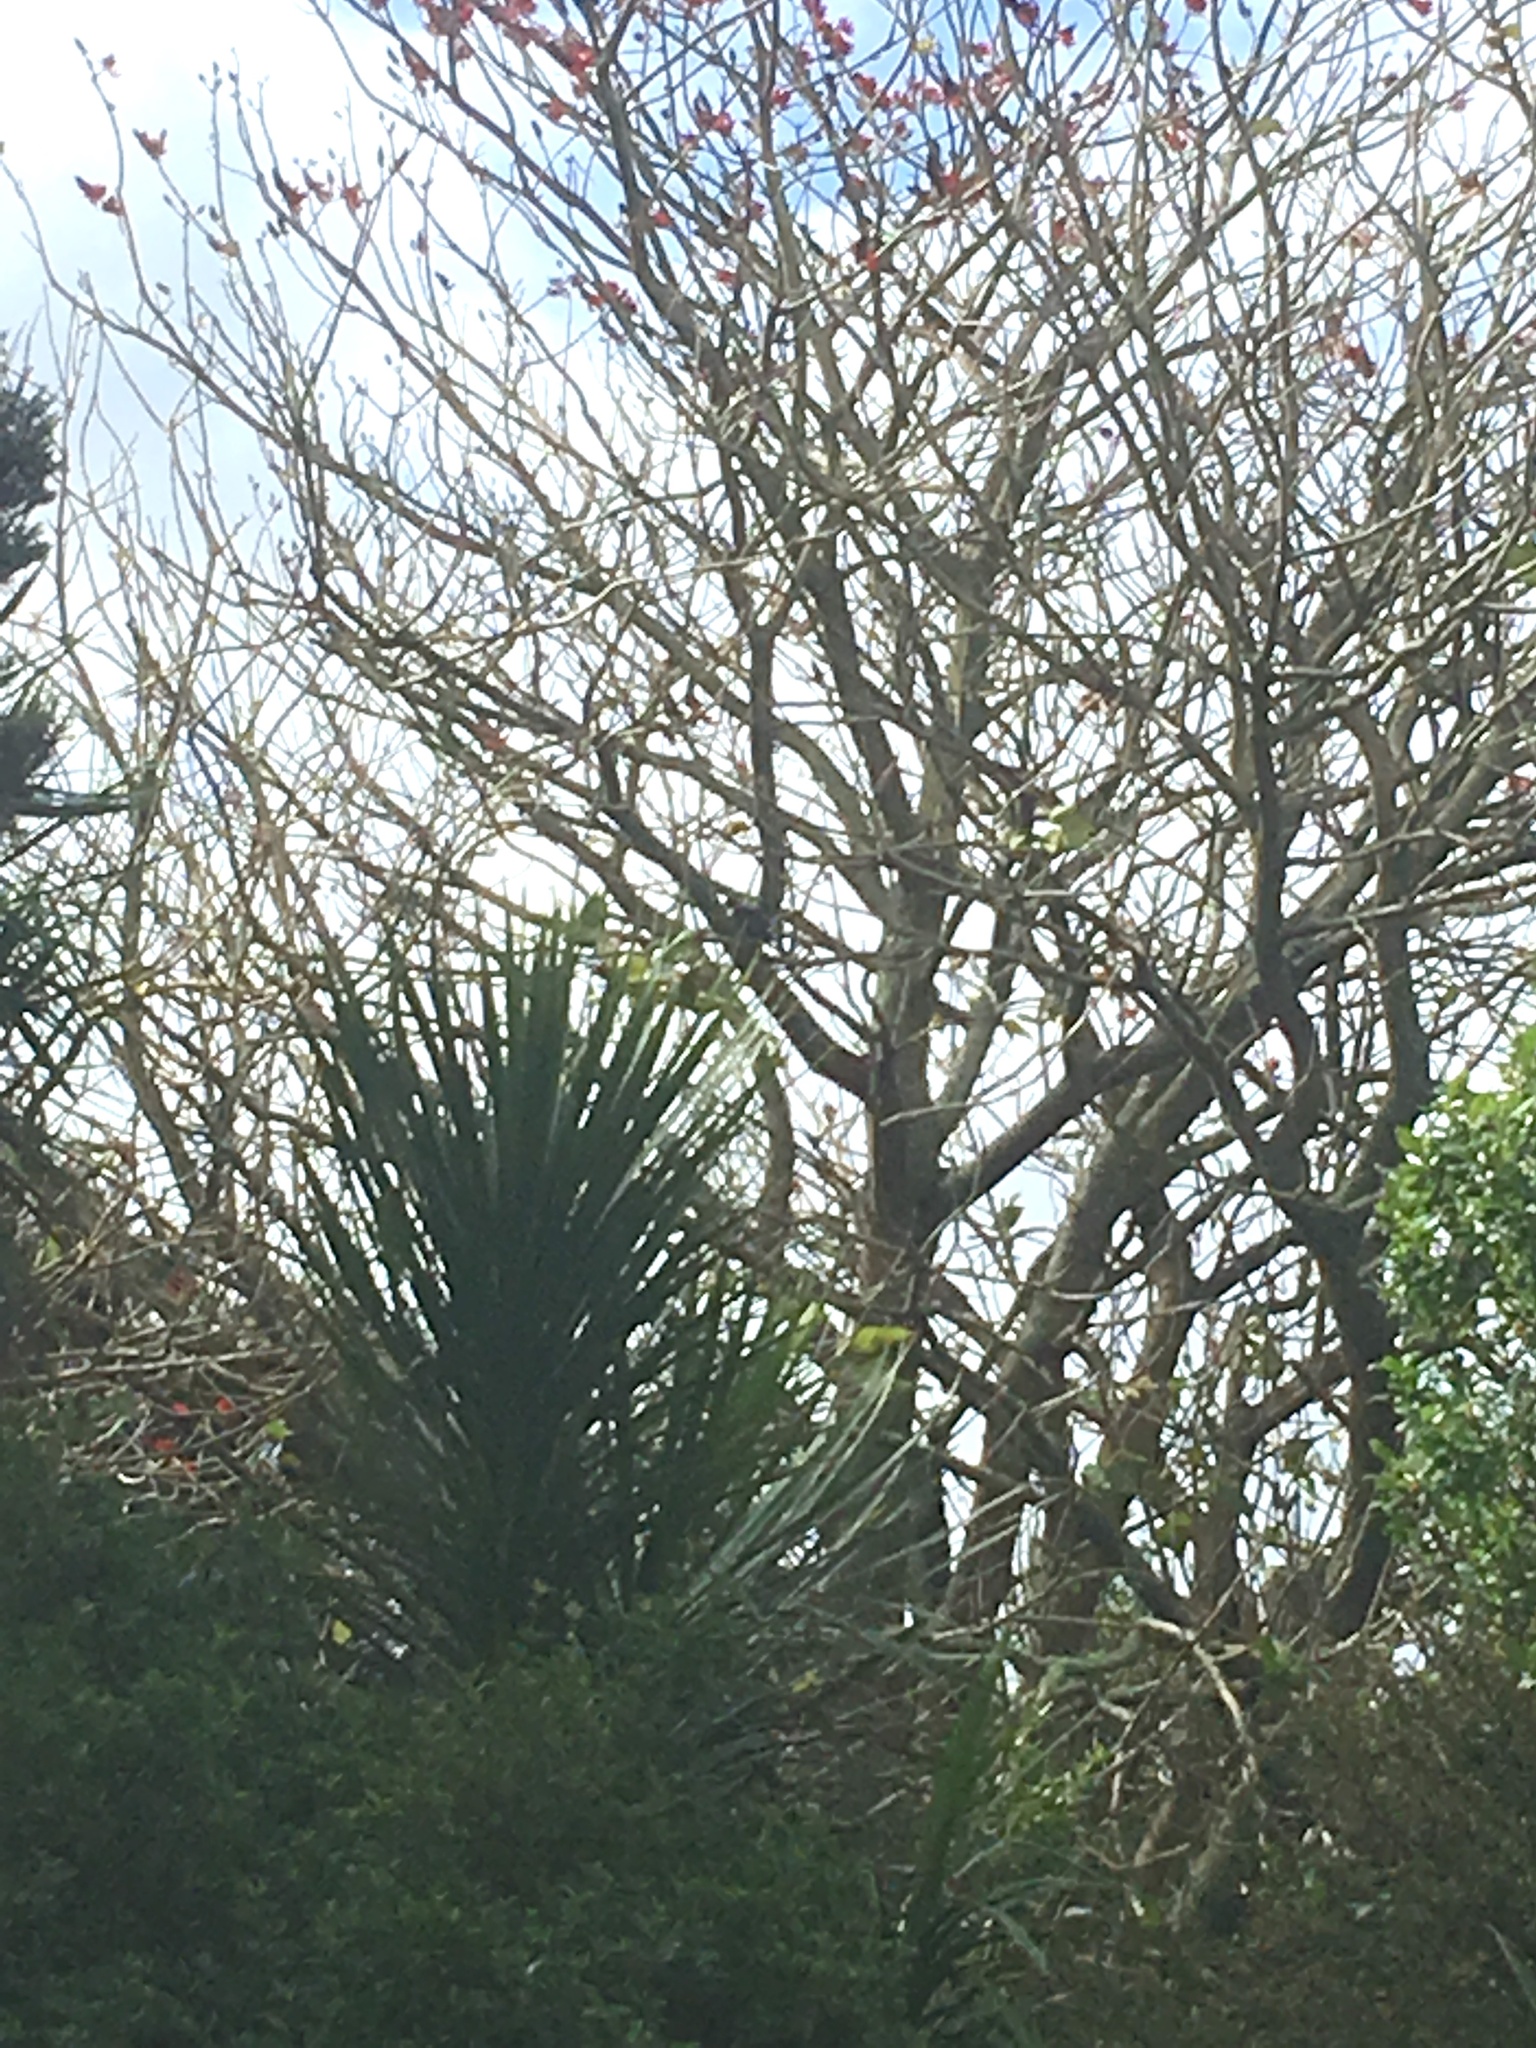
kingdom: Plantae
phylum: Tracheophyta
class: Magnoliopsida
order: Fabales
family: Fabaceae
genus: Erythrina
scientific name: Erythrina sykesii
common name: Coraltree
